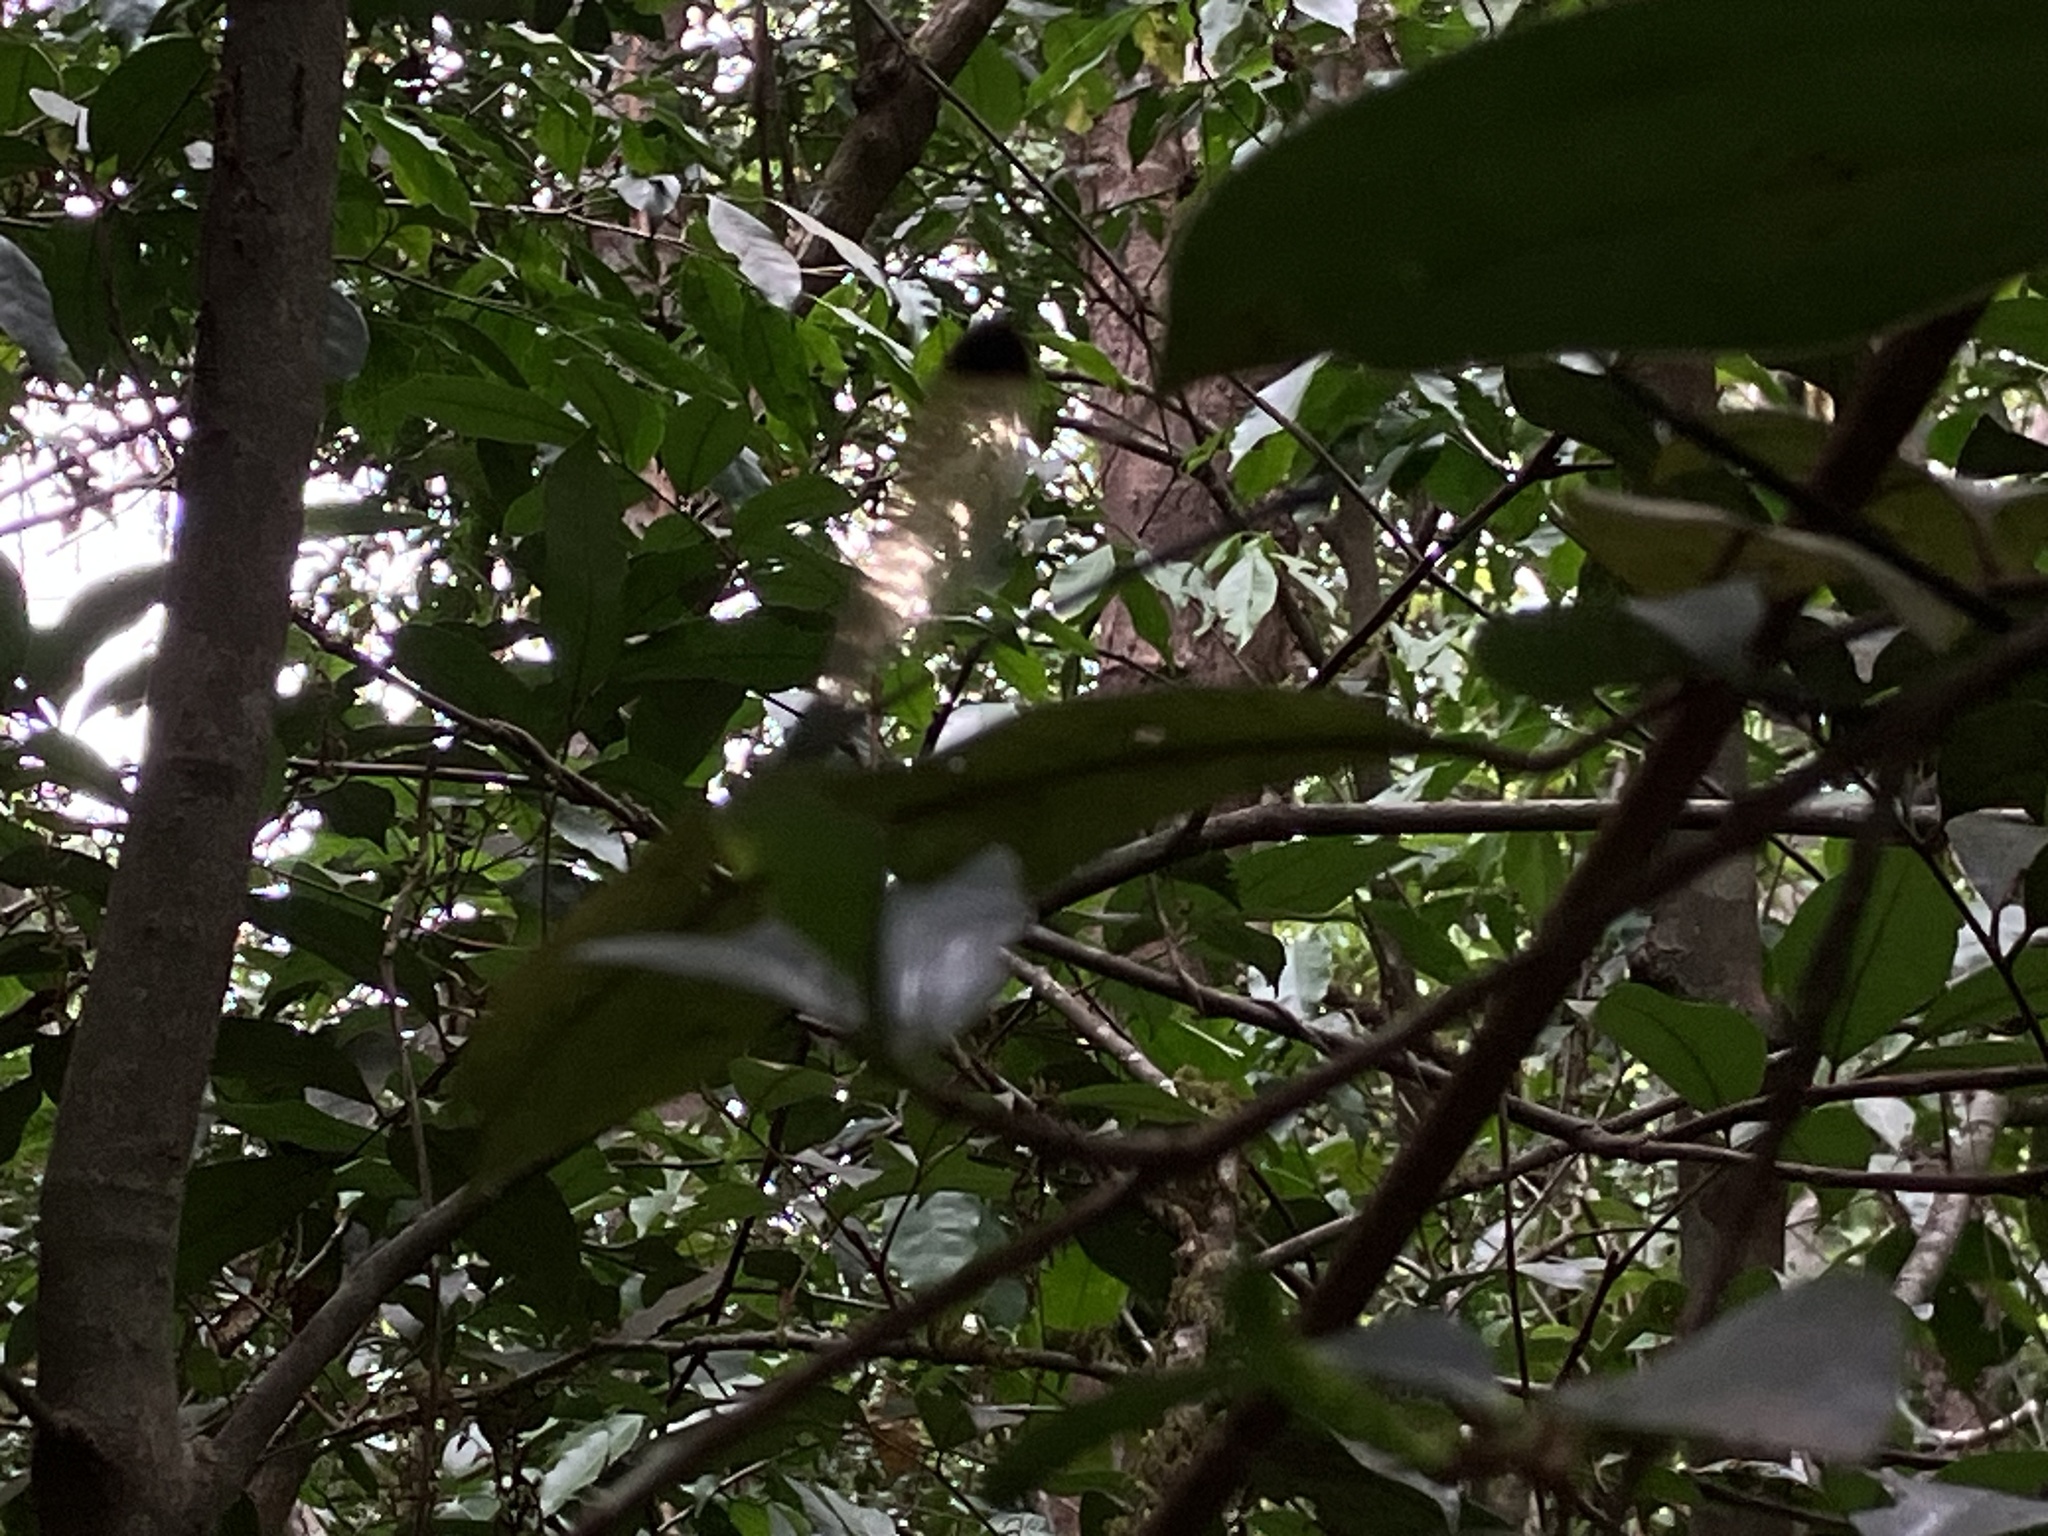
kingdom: Animalia
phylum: Arthropoda
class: Insecta
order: Odonata
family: Calopterygidae
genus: Vestalis
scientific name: Vestalis apicalis
